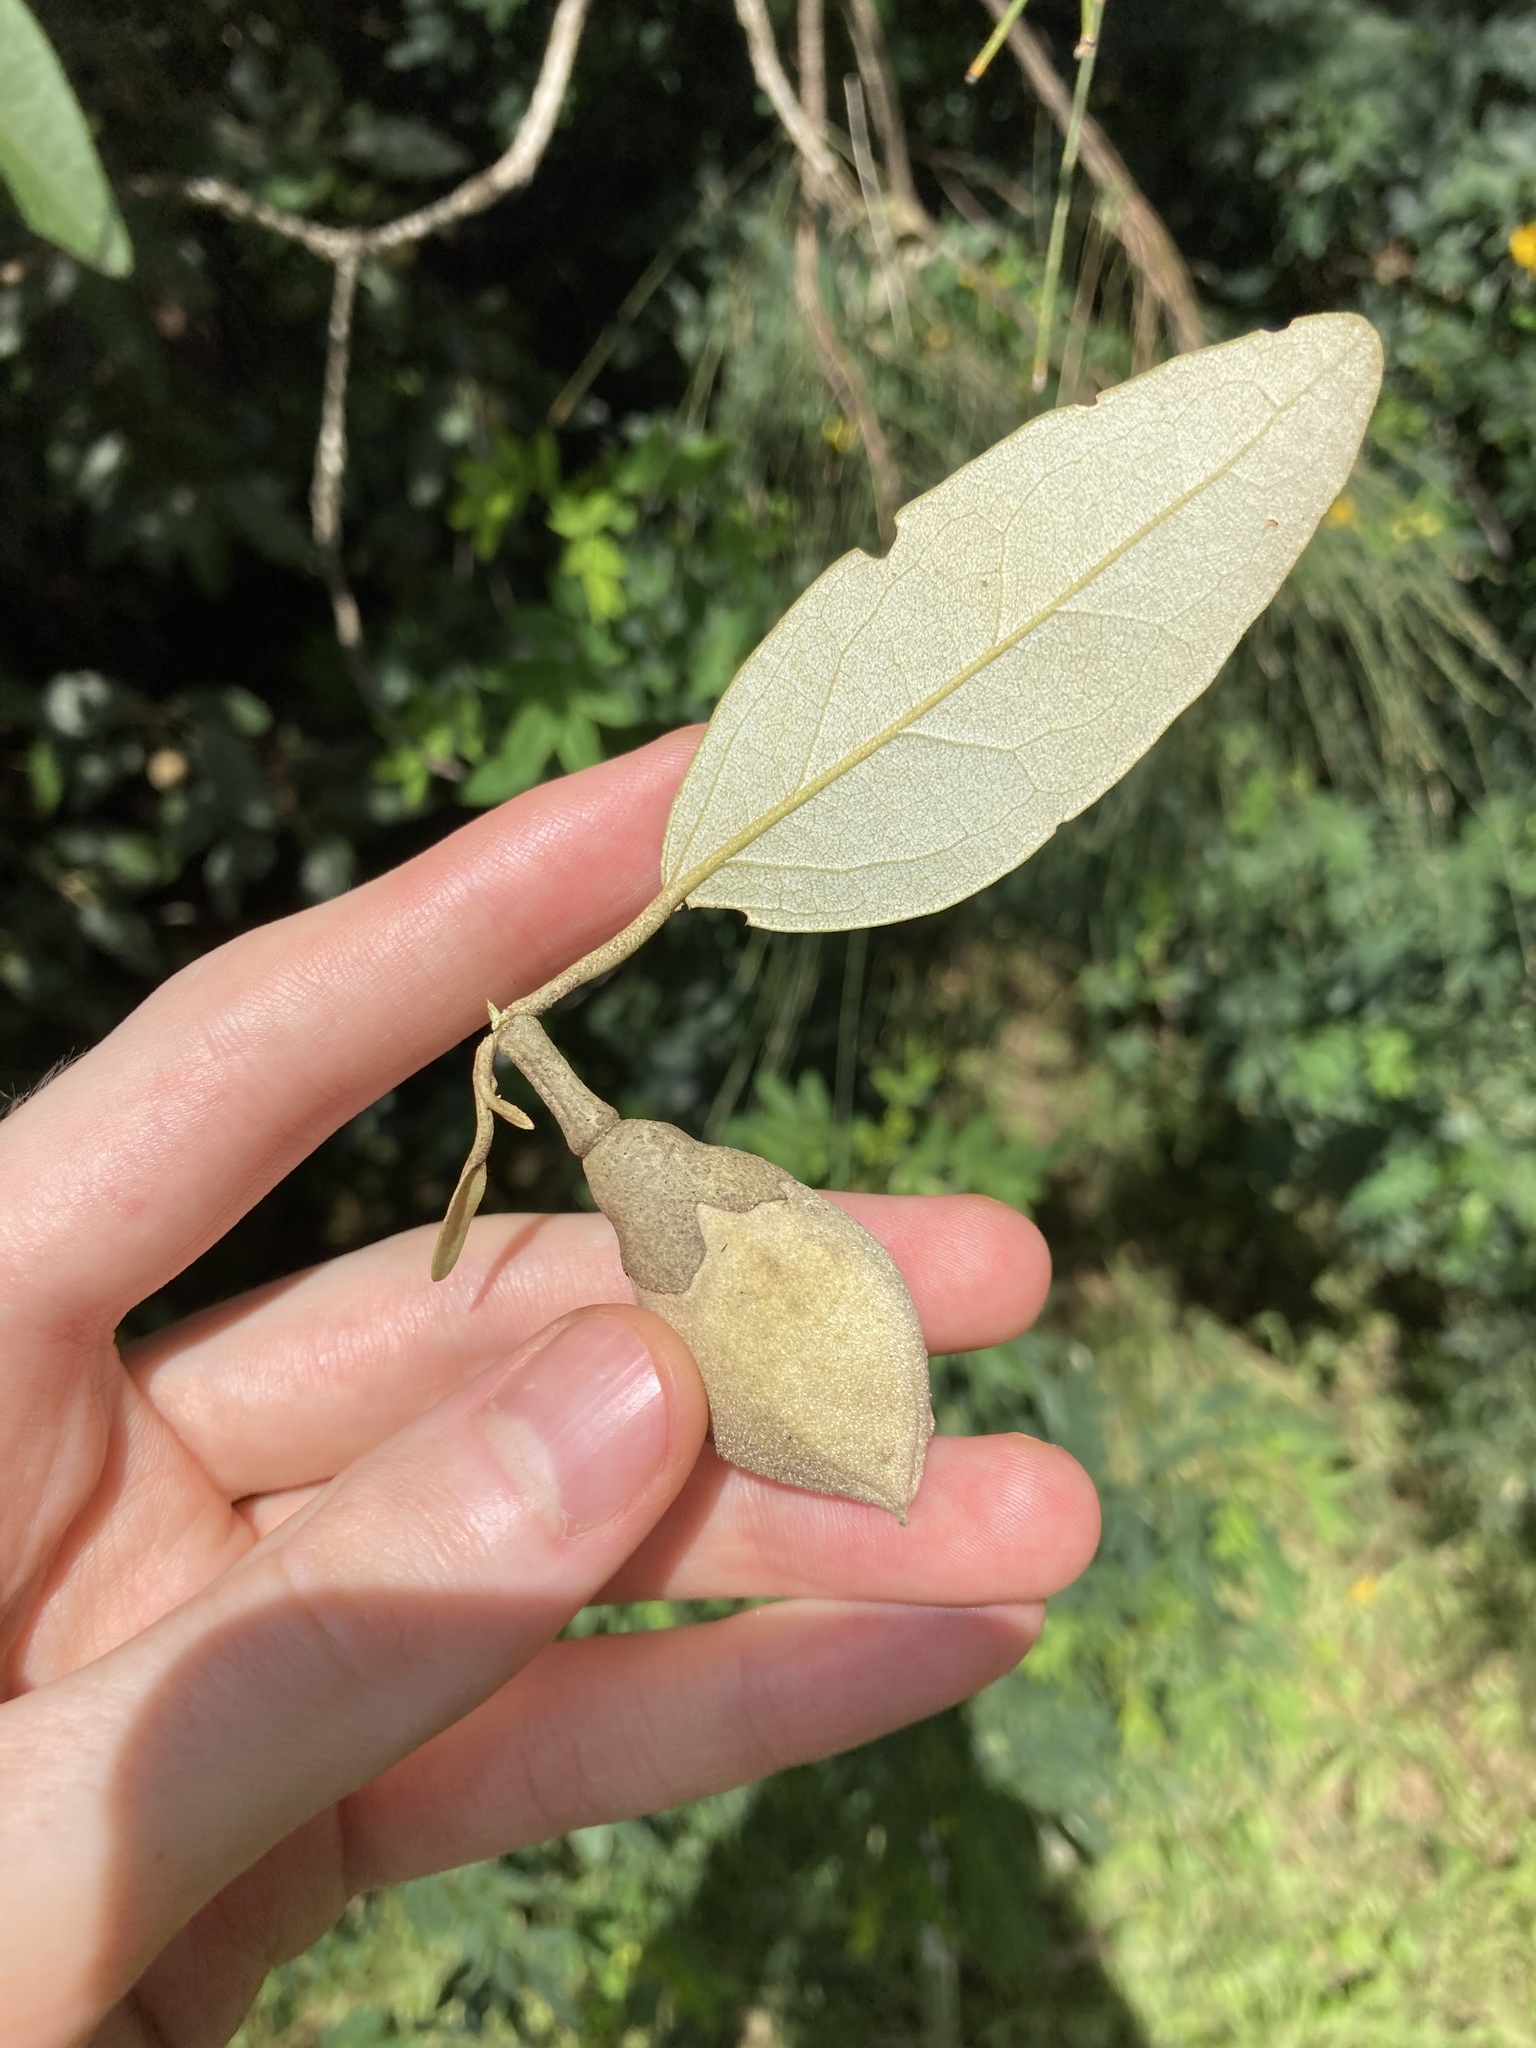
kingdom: Plantae
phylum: Tracheophyta
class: Magnoliopsida
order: Malvales
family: Malvaceae
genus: Lagunaria
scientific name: Lagunaria patersonia
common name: Cow itch tree
